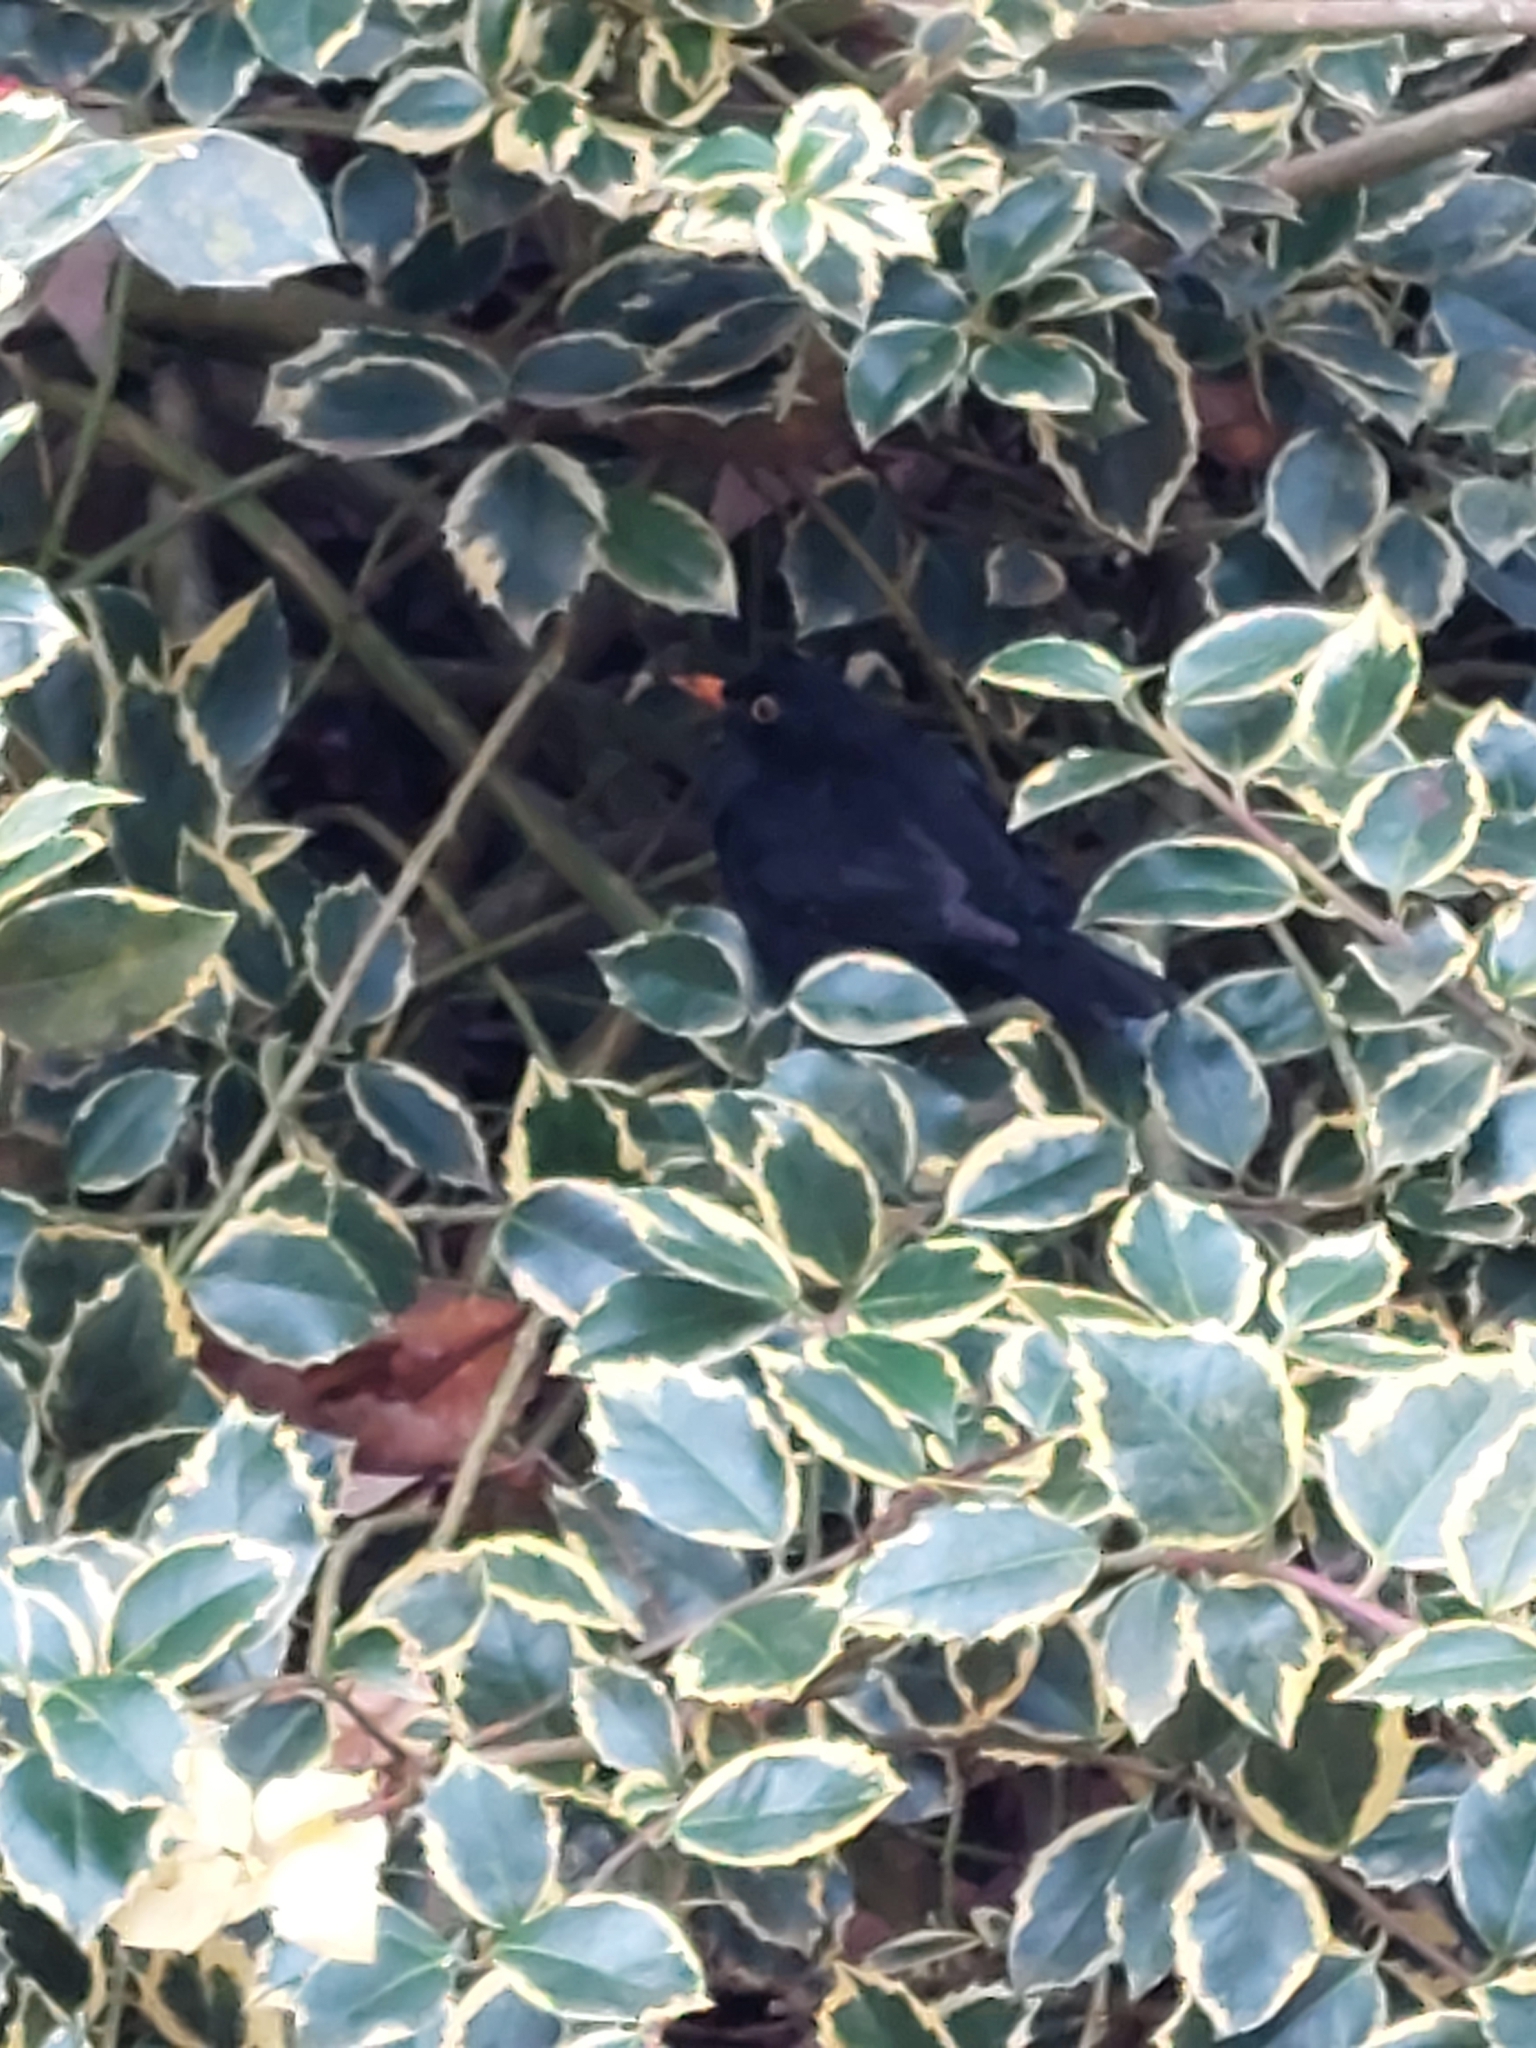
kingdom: Animalia
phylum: Chordata
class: Aves
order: Passeriformes
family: Turdidae
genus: Turdus
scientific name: Turdus merula
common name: Common blackbird
